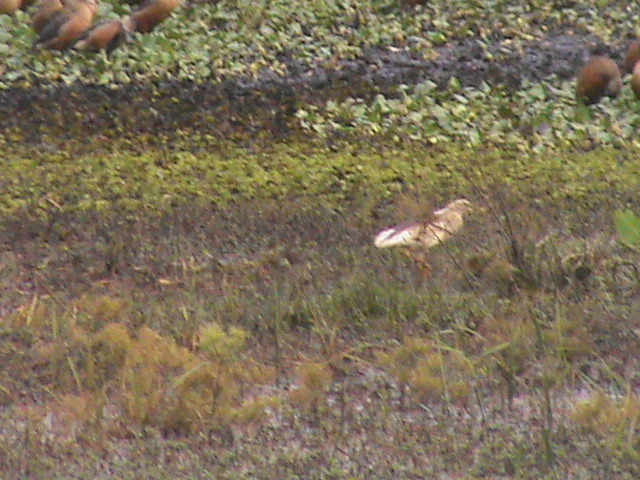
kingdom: Animalia
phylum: Chordata
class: Aves
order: Pelecaniformes
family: Ardeidae
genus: Ardeola
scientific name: Ardeola grayii
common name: Indian pond heron
